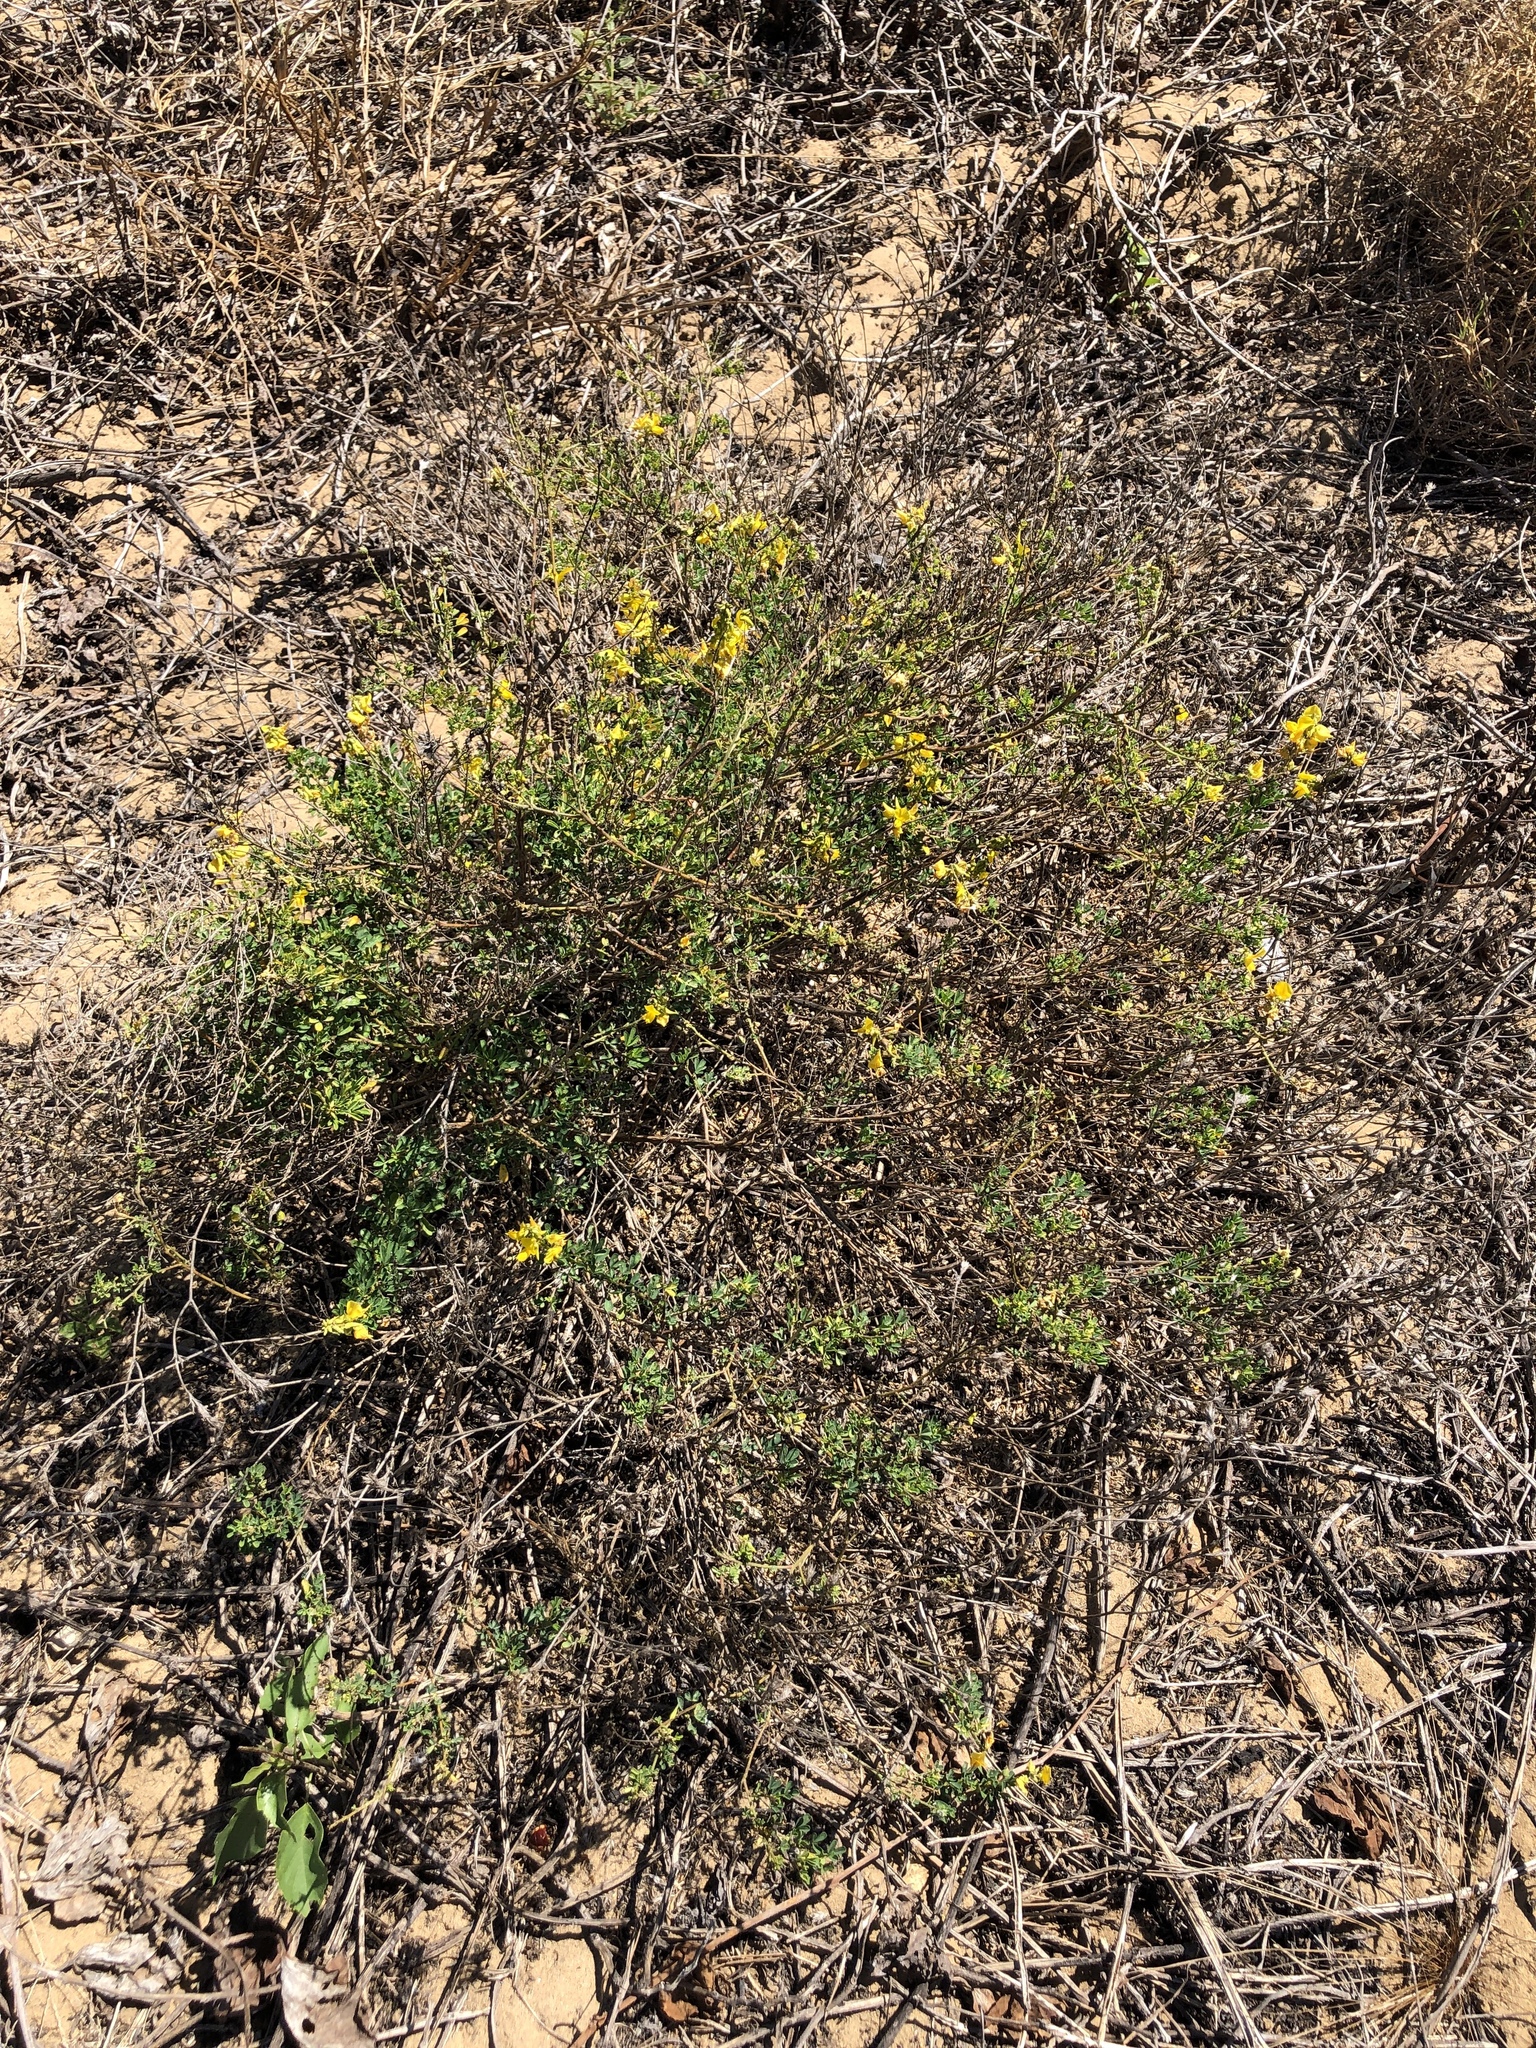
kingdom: Plantae
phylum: Tracheophyta
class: Magnoliopsida
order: Fabales
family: Fabaceae
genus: Crotalaria
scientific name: Crotalaria medicaginea
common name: Trefoil rattlepod
